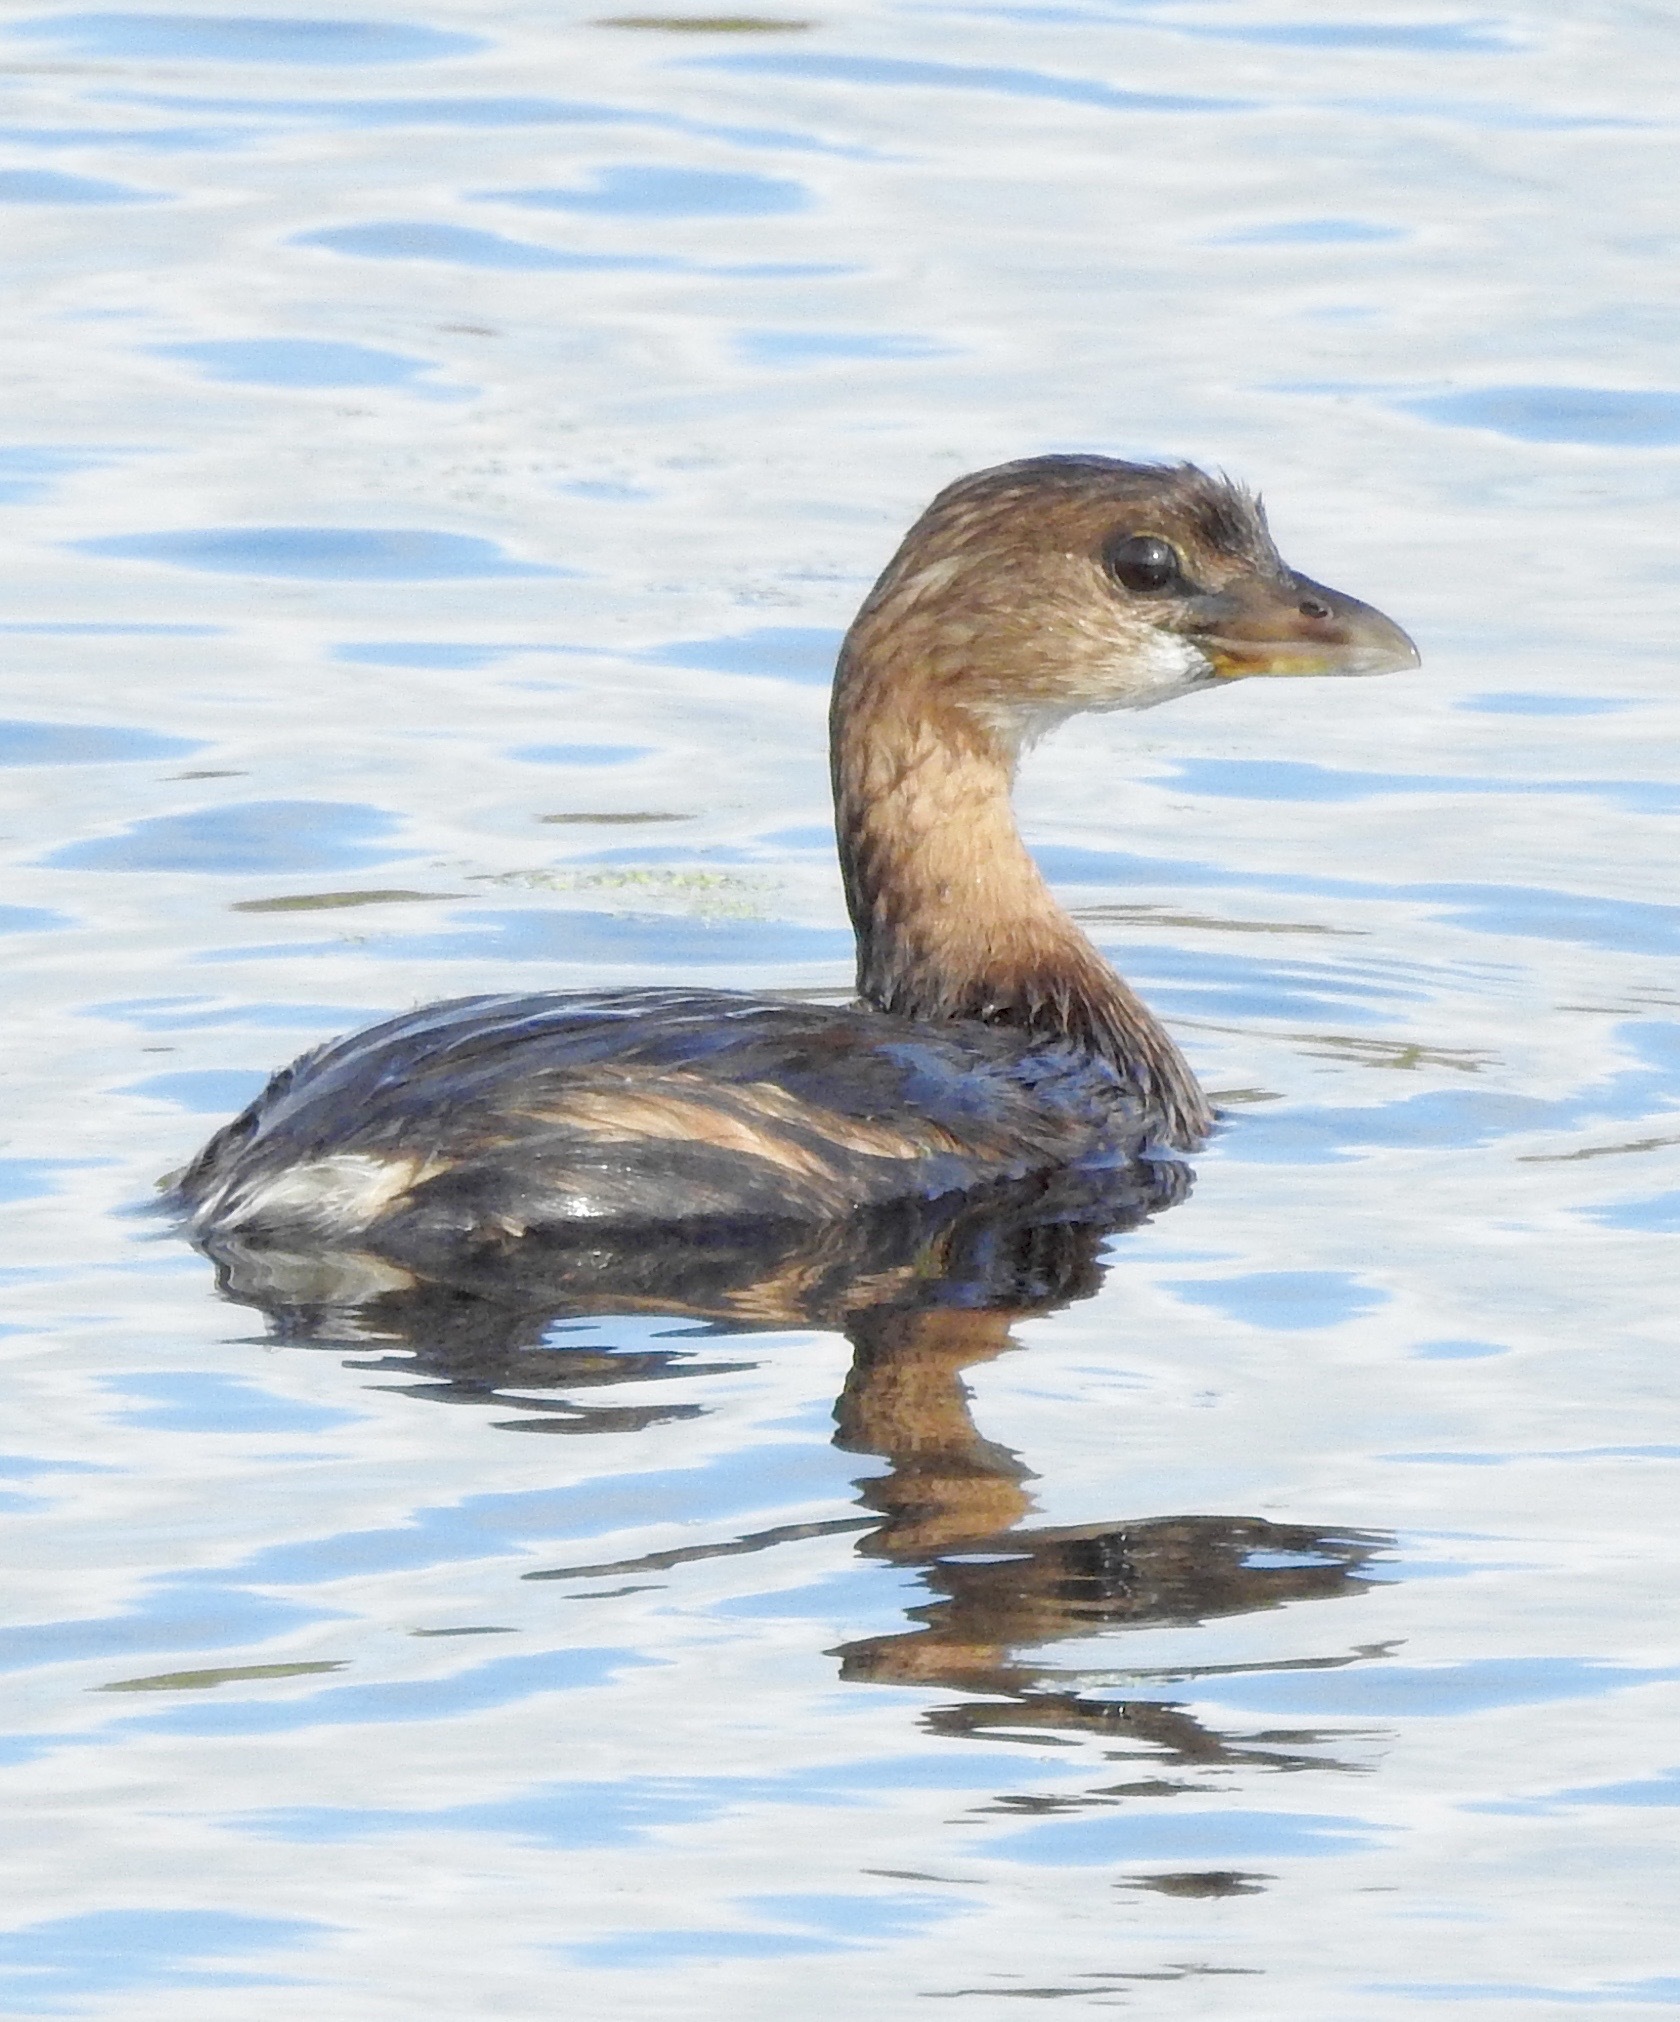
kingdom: Animalia
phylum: Chordata
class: Aves
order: Podicipediformes
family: Podicipedidae
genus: Podilymbus
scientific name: Podilymbus podiceps
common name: Pied-billed grebe
